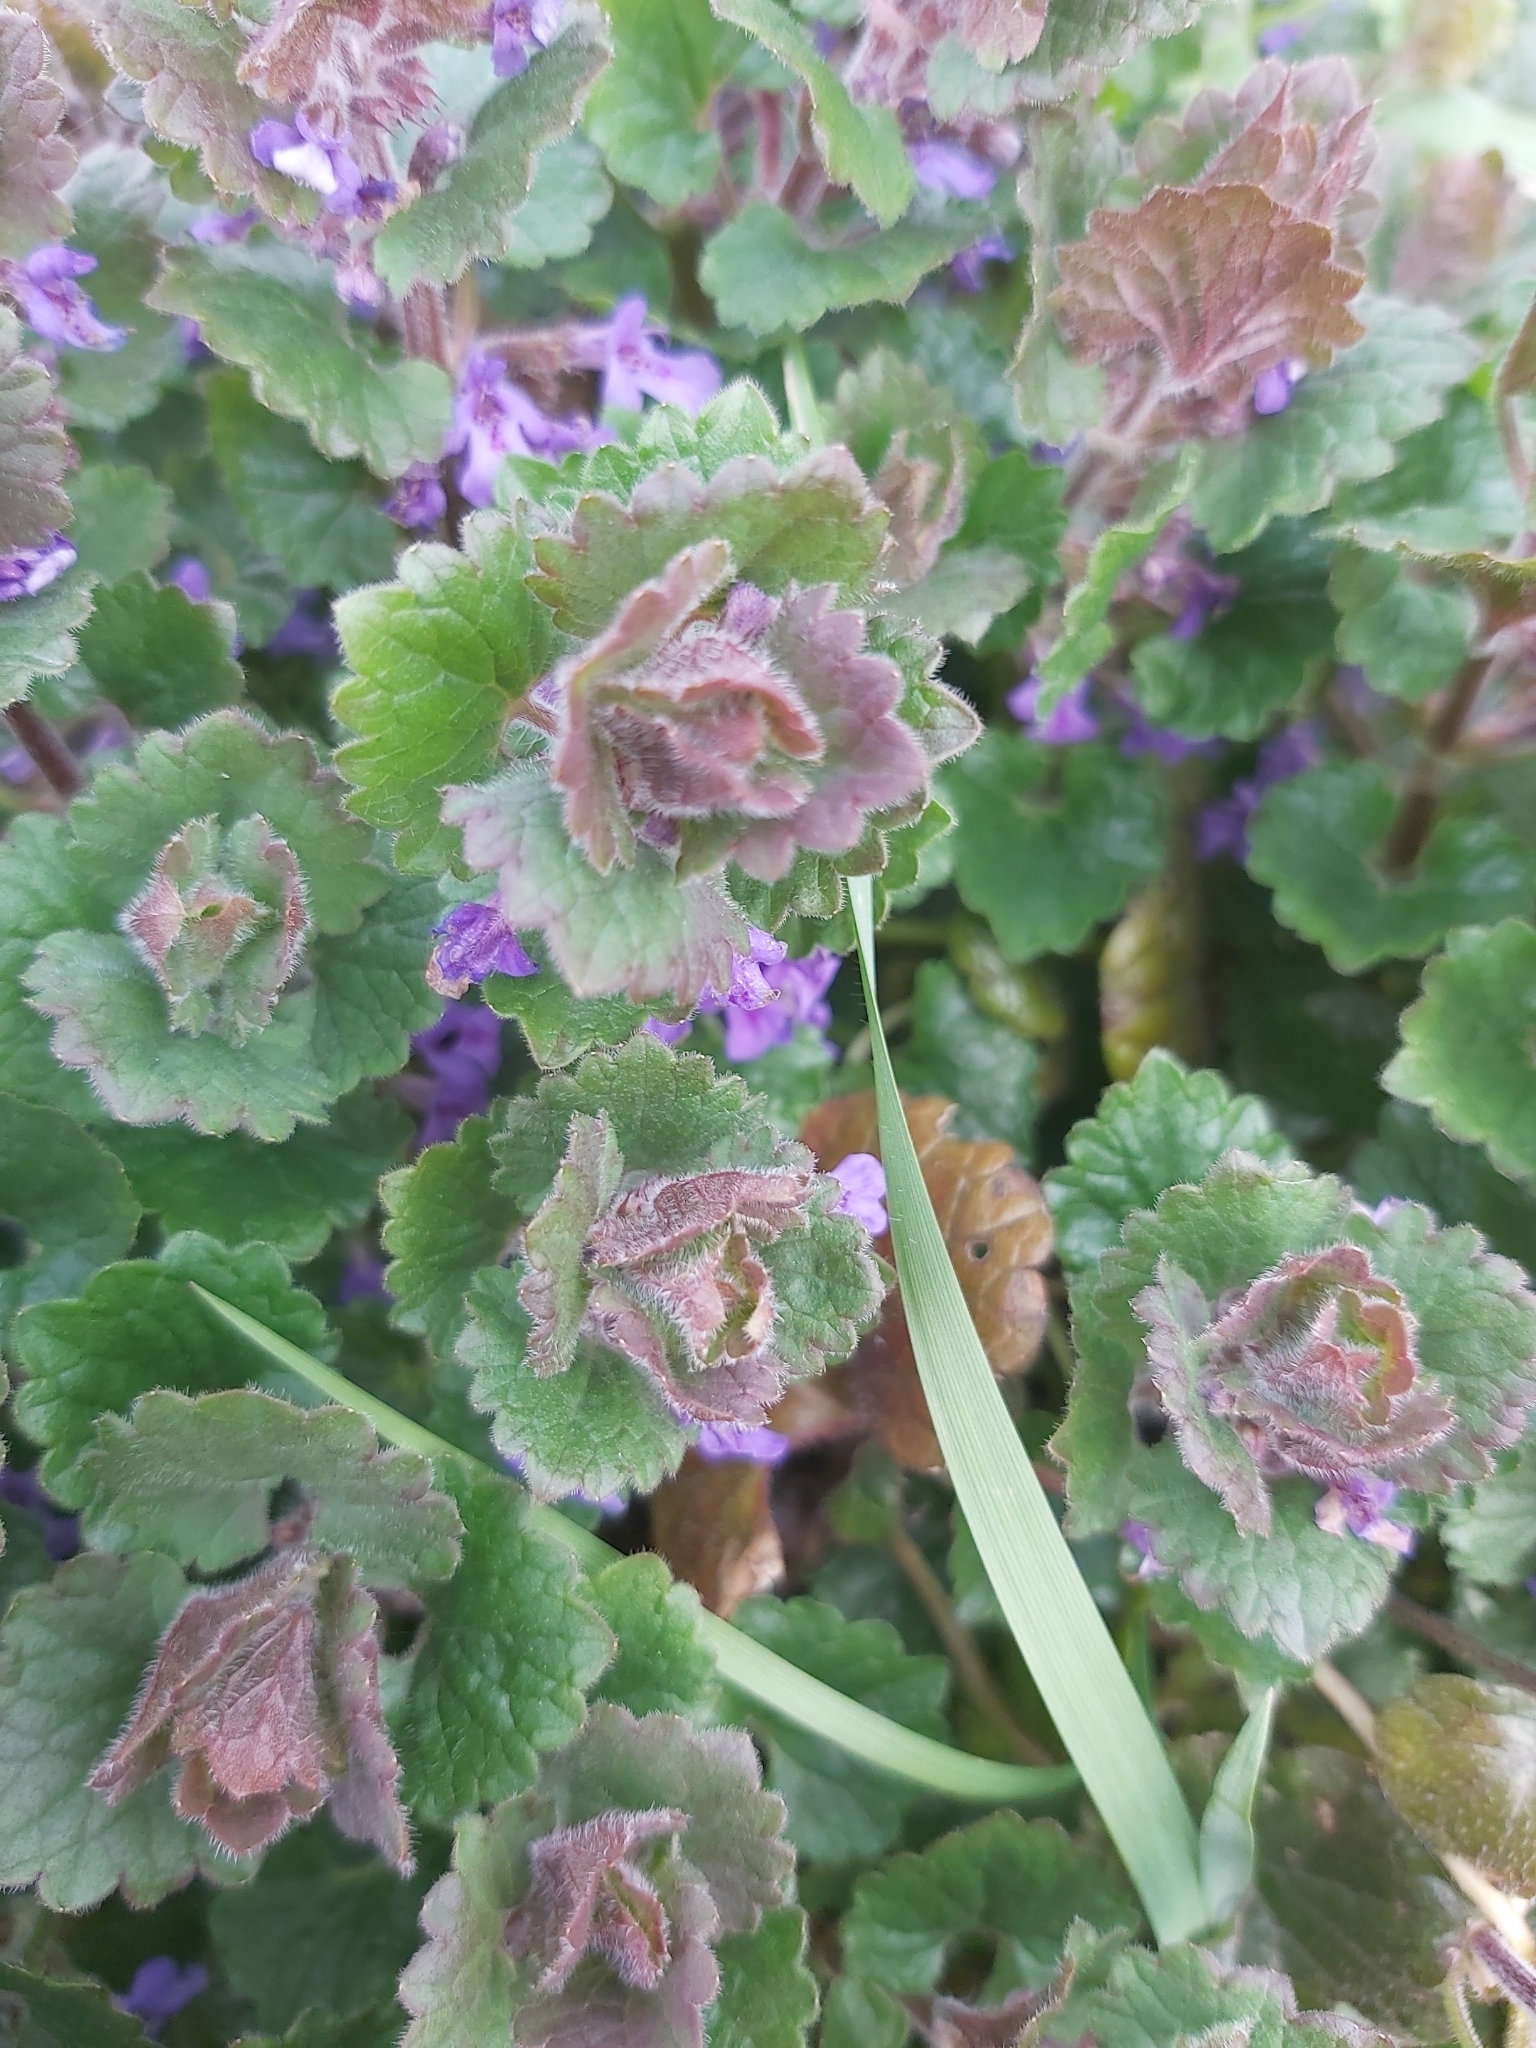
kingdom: Plantae
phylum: Tracheophyta
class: Magnoliopsida
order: Lamiales
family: Lamiaceae
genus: Glechoma
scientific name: Glechoma hederacea
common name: Ground ivy
